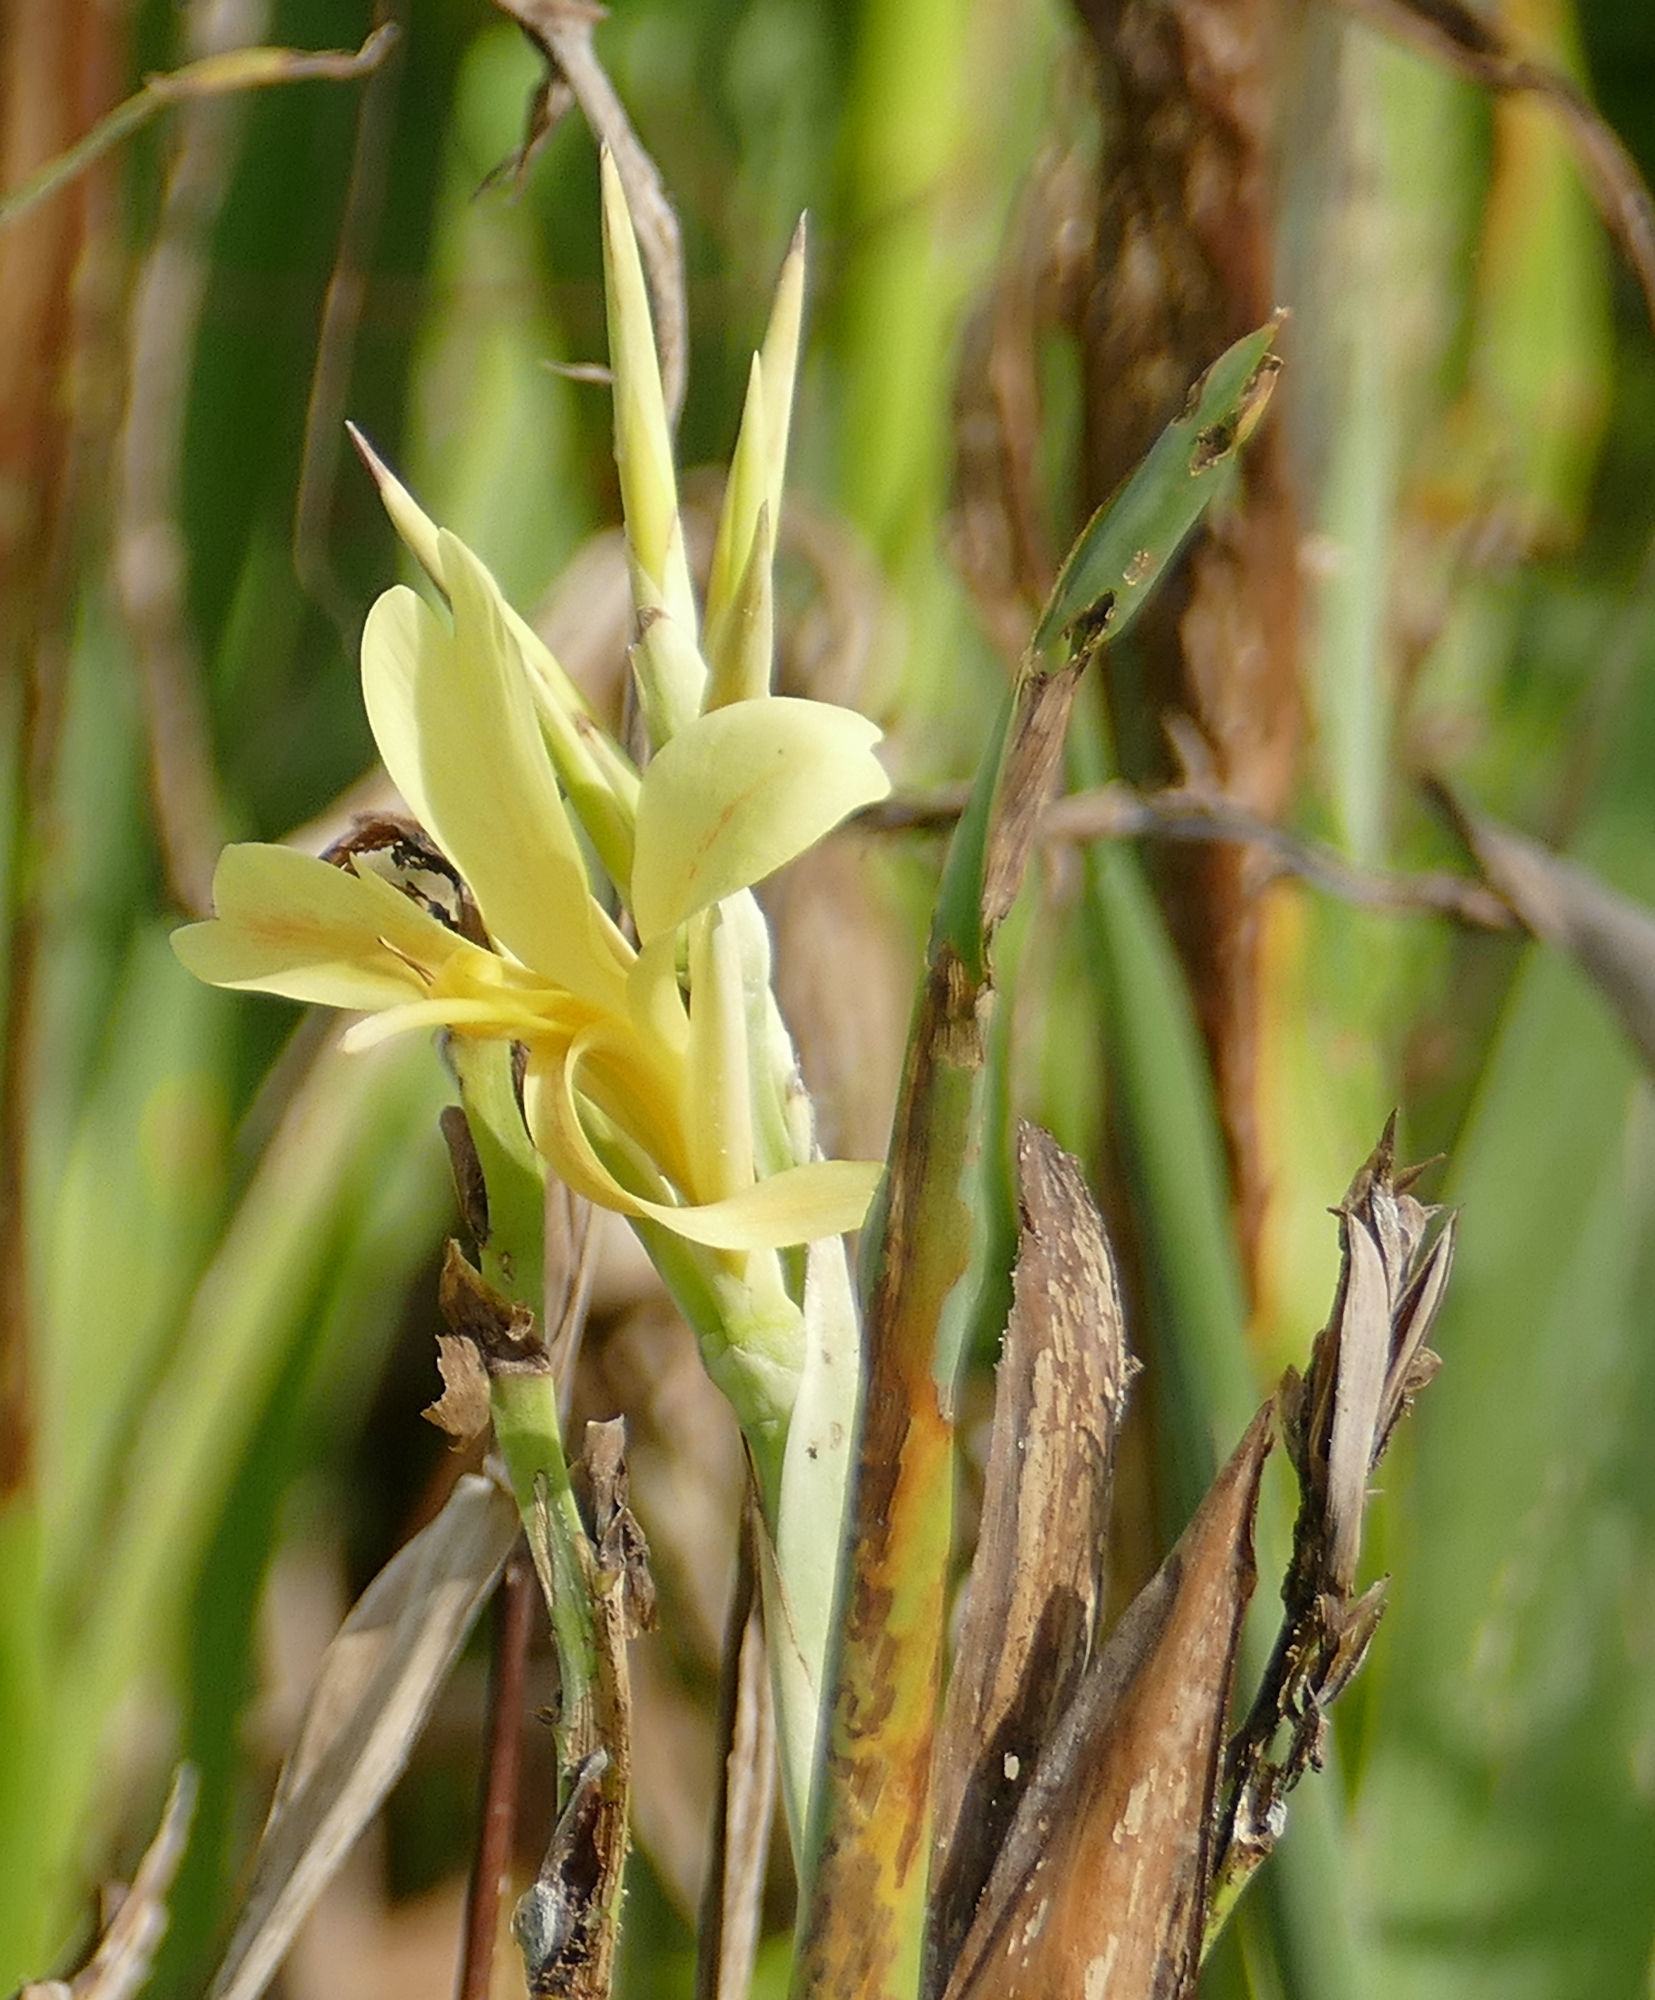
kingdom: Plantae
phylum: Tracheophyta
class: Liliopsida
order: Zingiberales
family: Cannaceae
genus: Canna
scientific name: Canna glauca
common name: Louisiana canna
